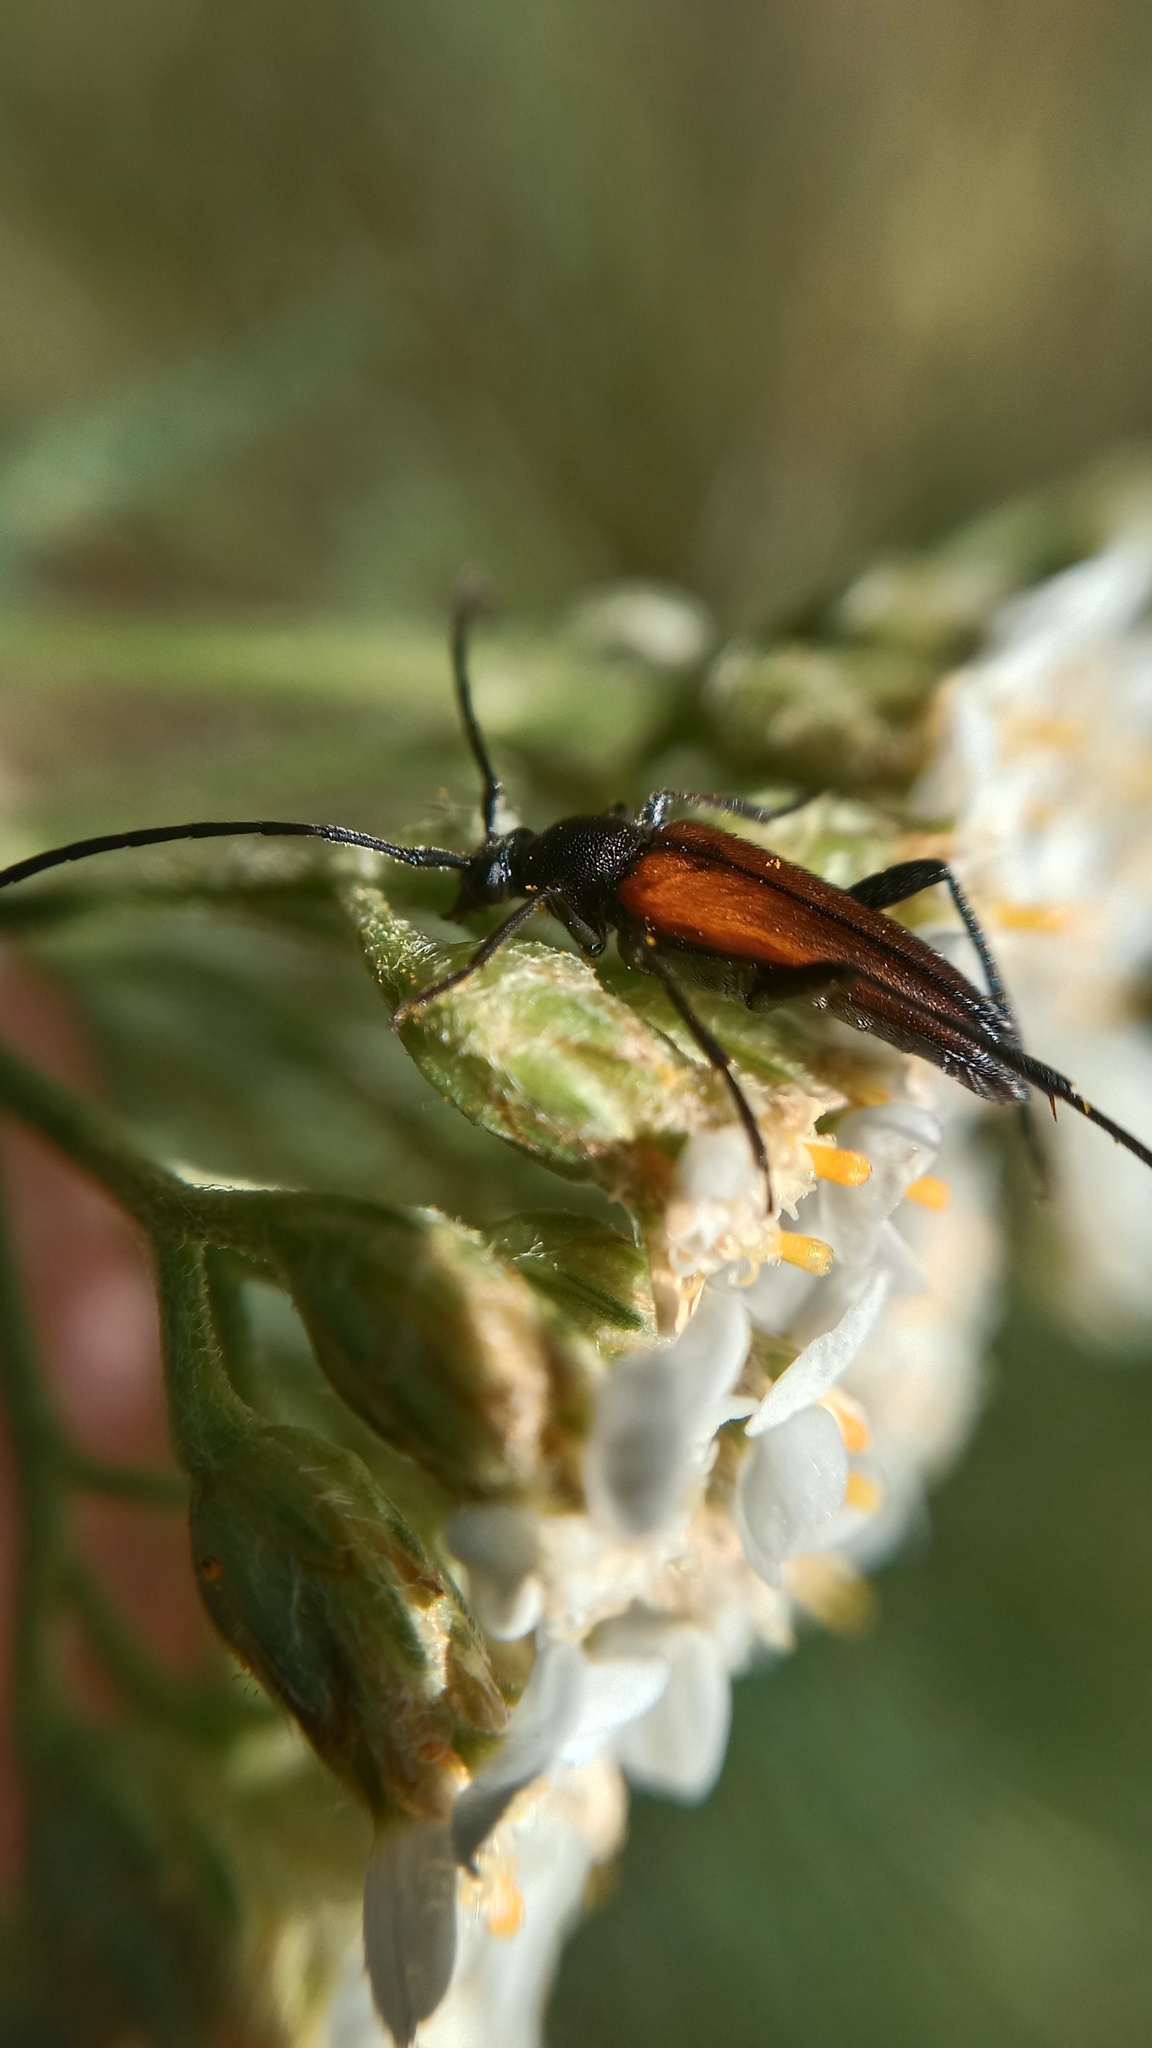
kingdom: Animalia
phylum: Arthropoda
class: Insecta
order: Coleoptera
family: Cerambycidae
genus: Stenurella
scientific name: Stenurella melanura
